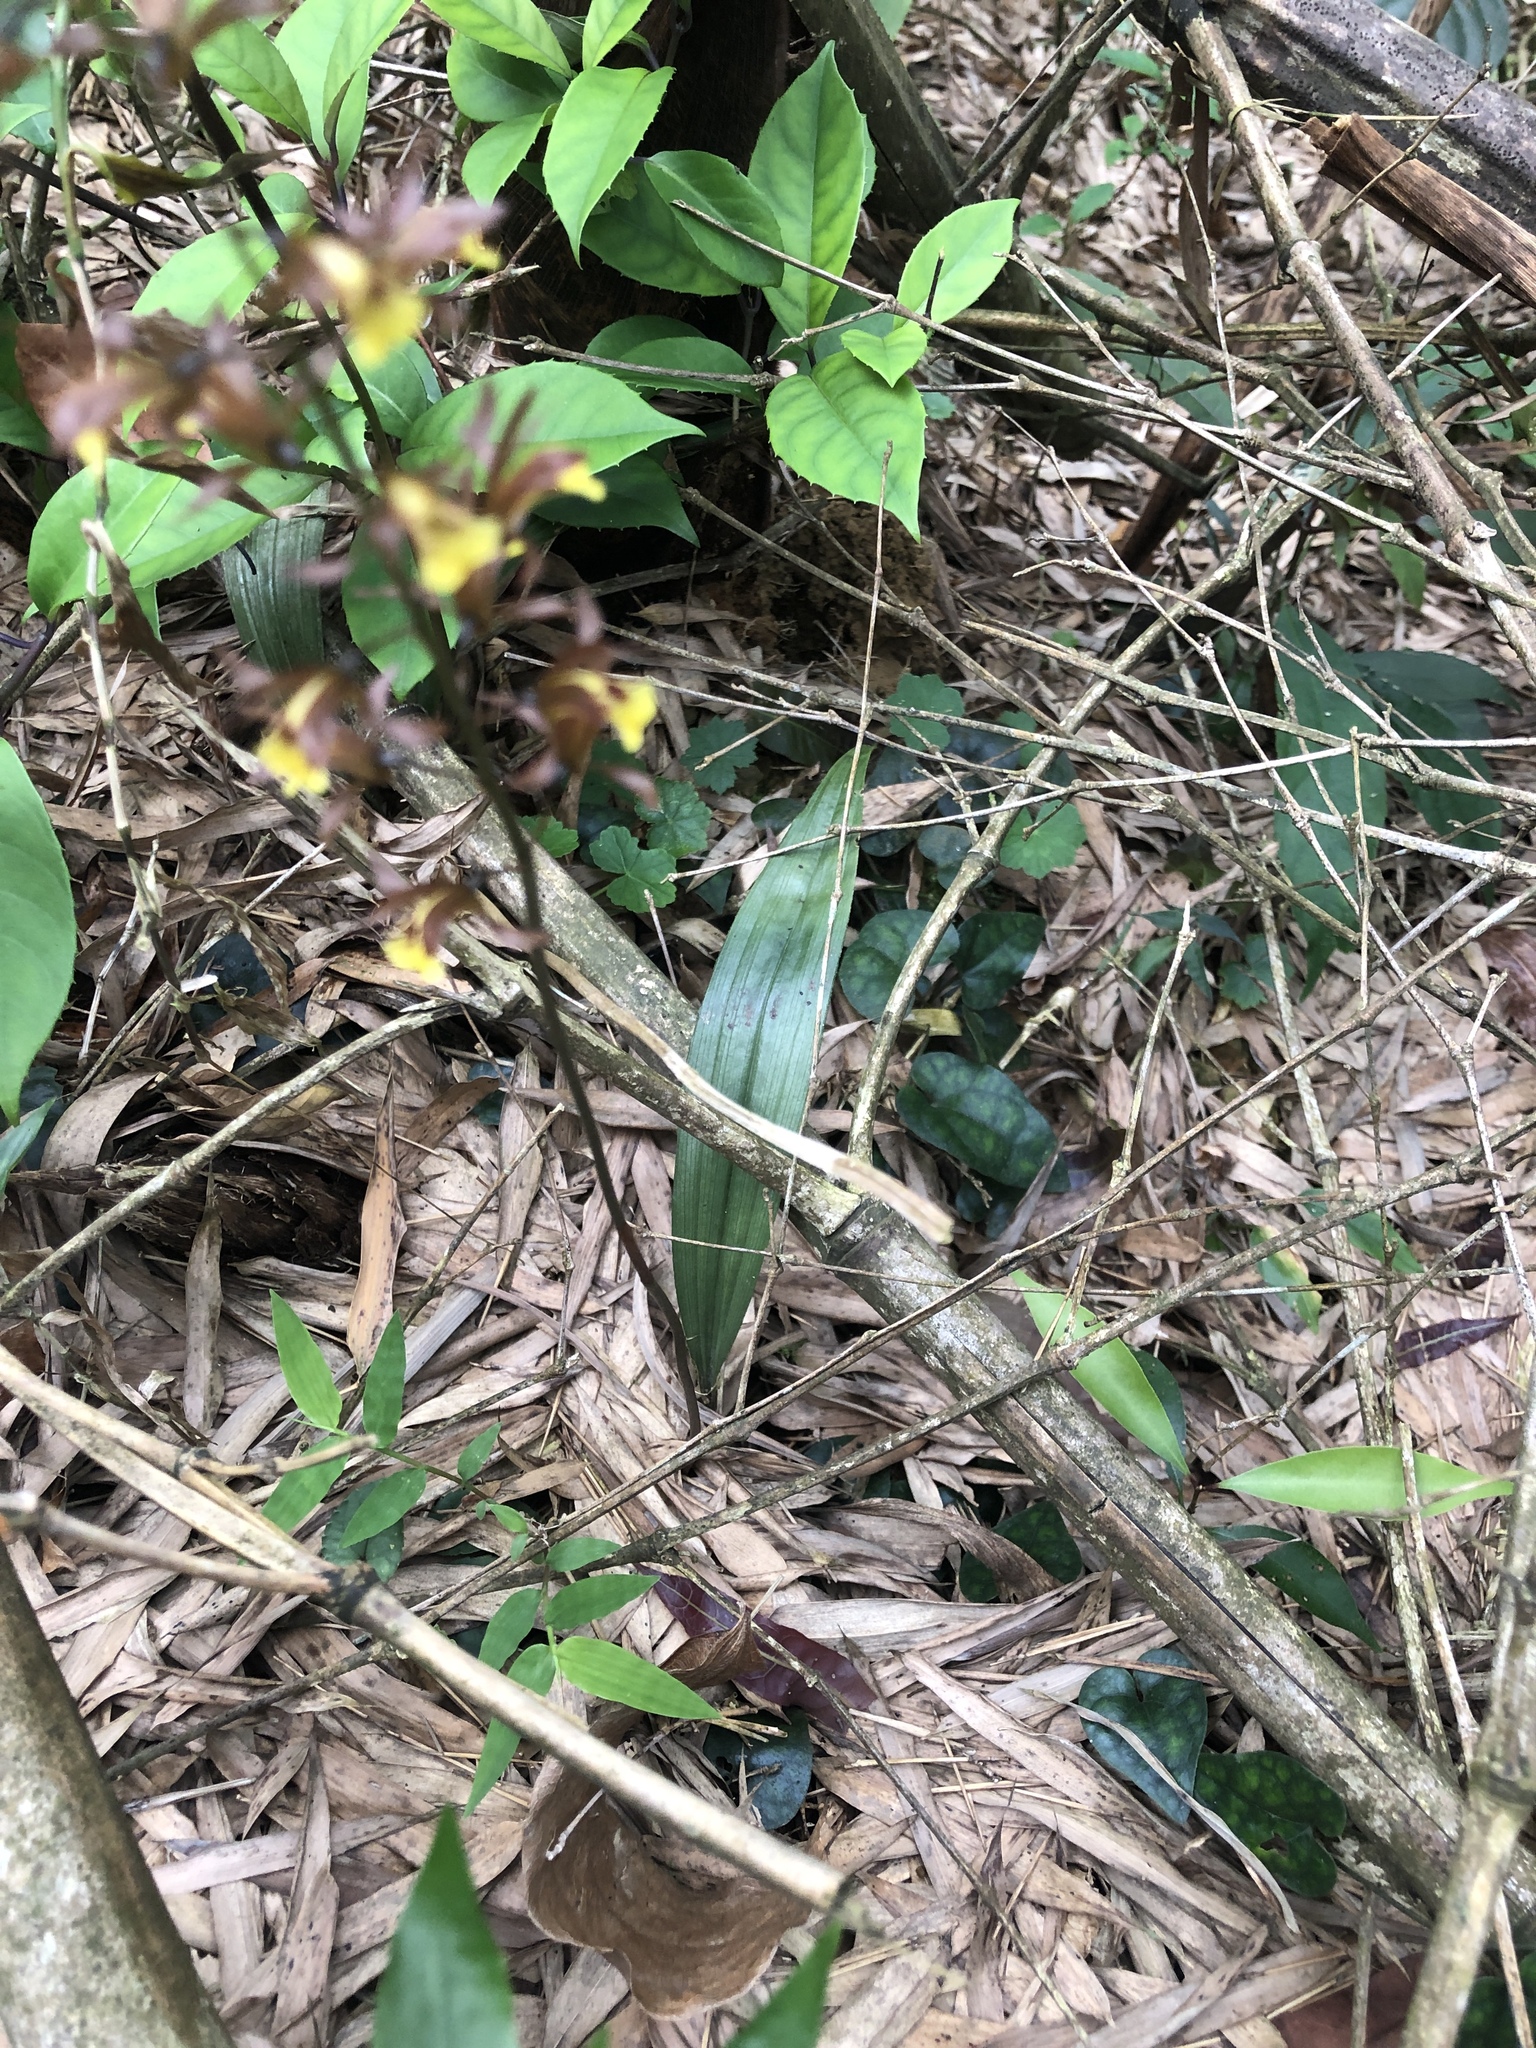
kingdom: Plantae
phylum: Tracheophyta
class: Liliopsida
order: Asparagales
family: Orchidaceae
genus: Tainia
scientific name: Tainia dunnii
